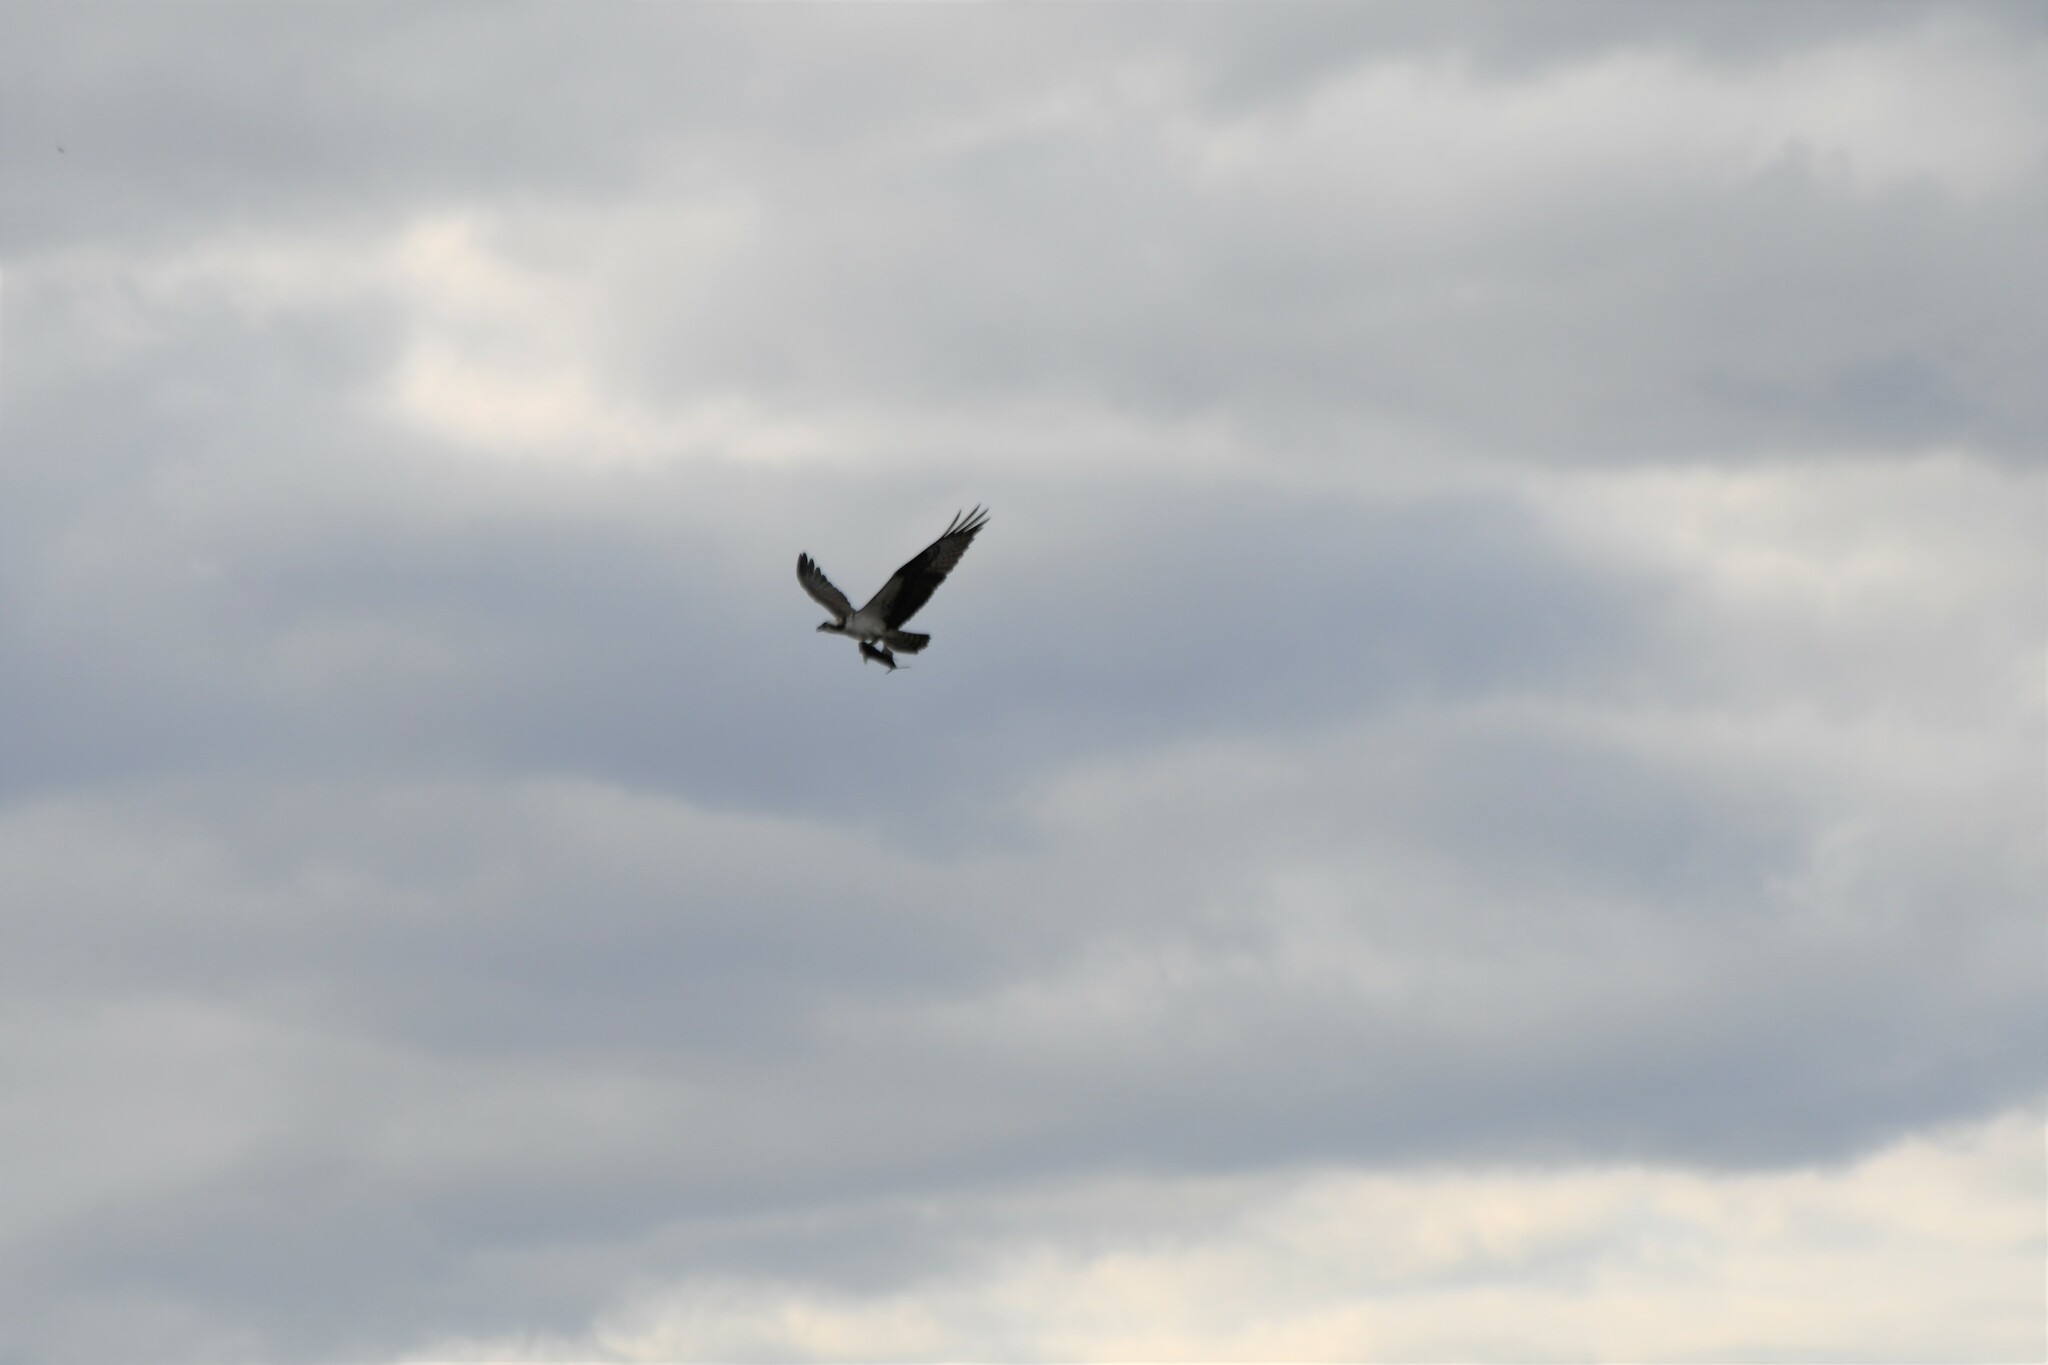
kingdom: Animalia
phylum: Chordata
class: Aves
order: Accipitriformes
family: Pandionidae
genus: Pandion
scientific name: Pandion haliaetus
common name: Osprey
